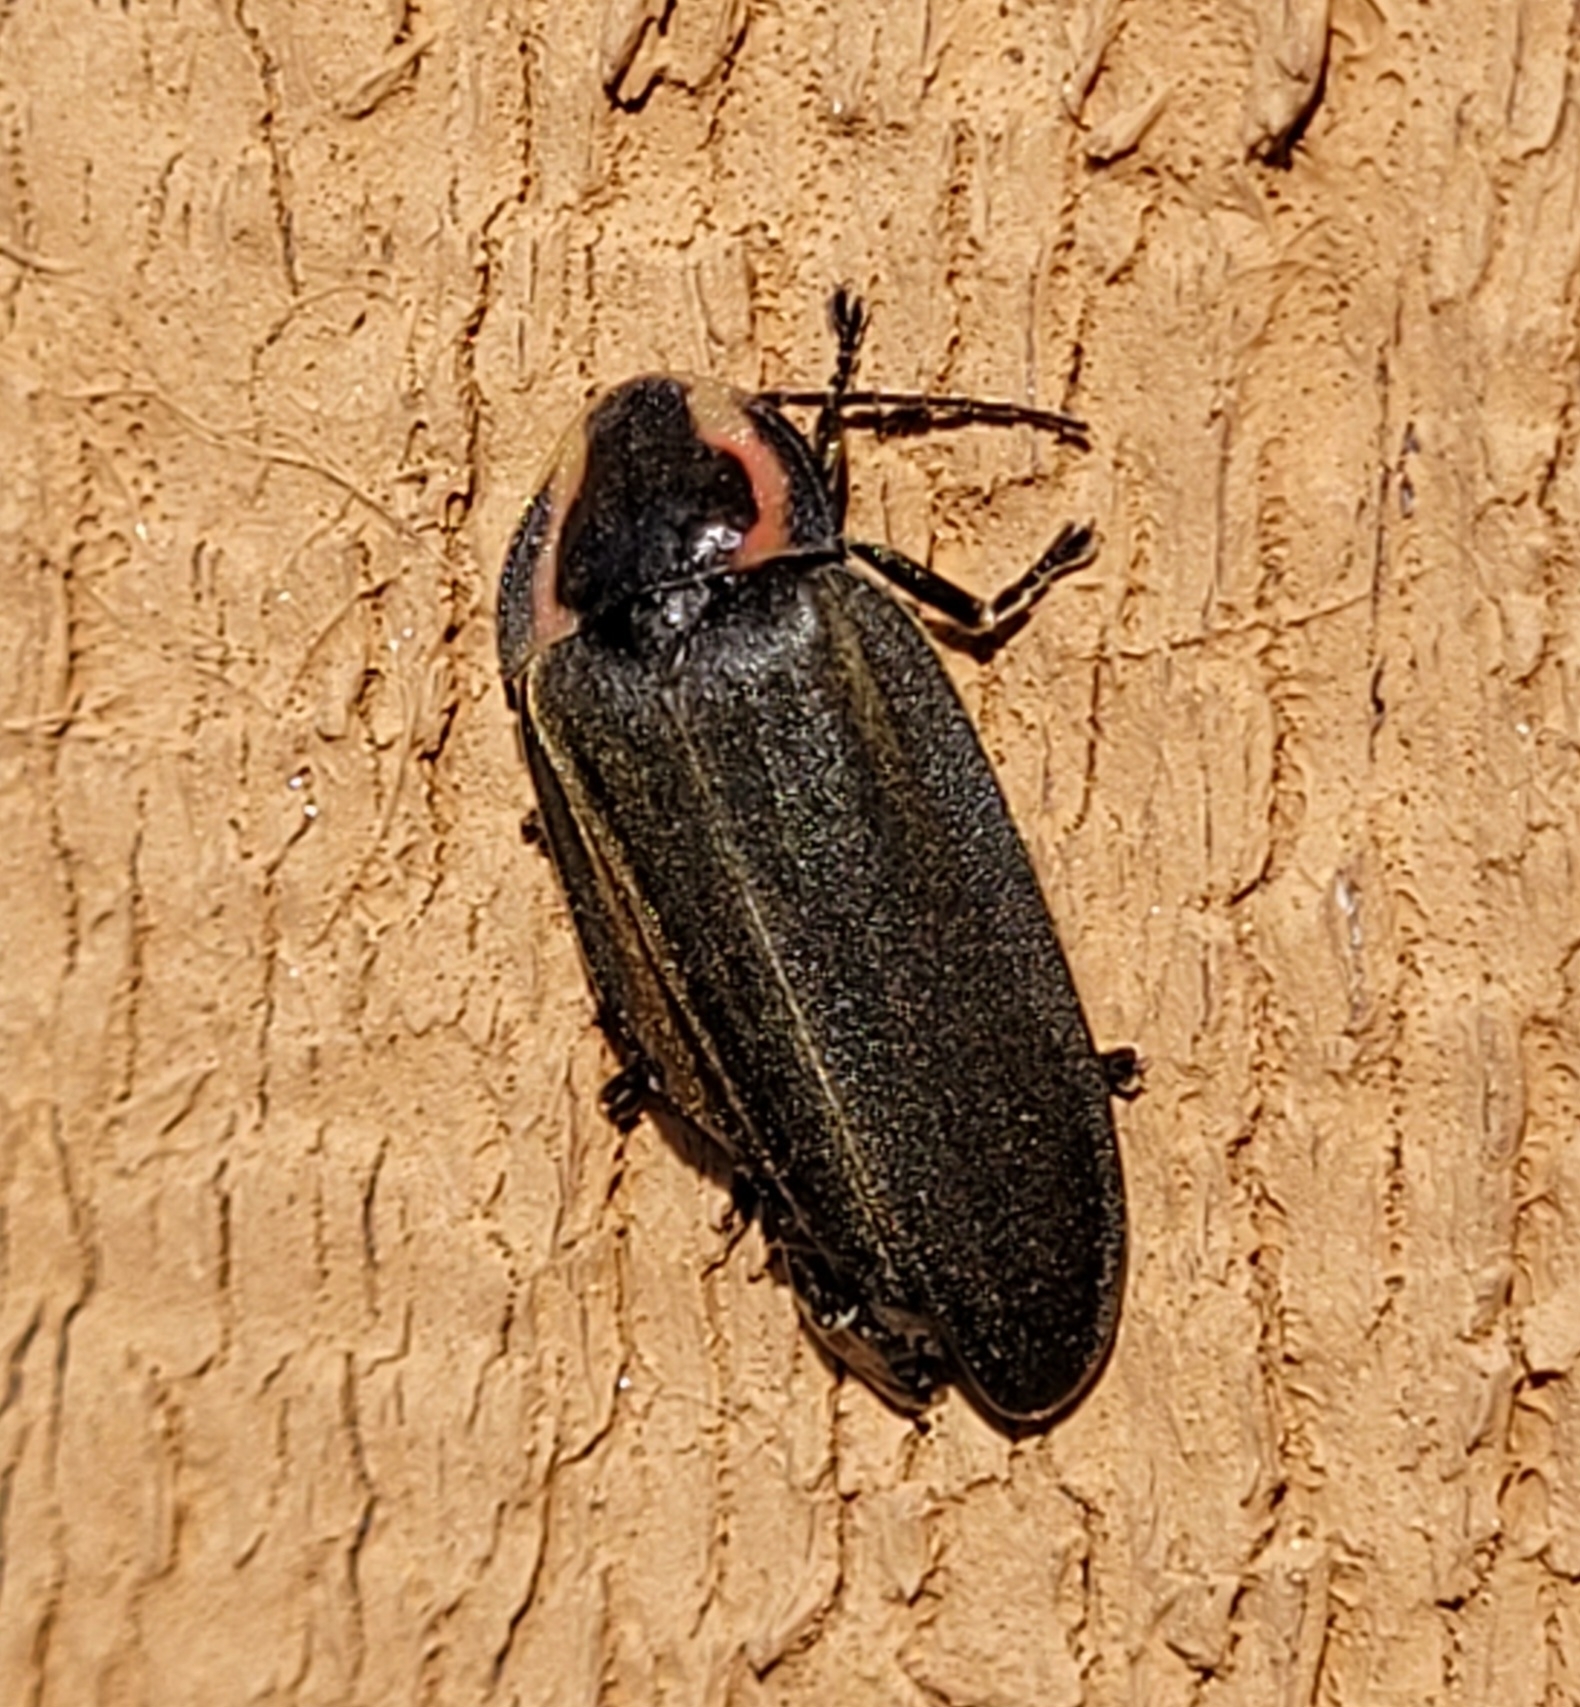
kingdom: Animalia
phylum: Arthropoda
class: Insecta
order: Coleoptera
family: Lampyridae
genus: Photinus
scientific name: Photinus corrusca
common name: Winter firefly
